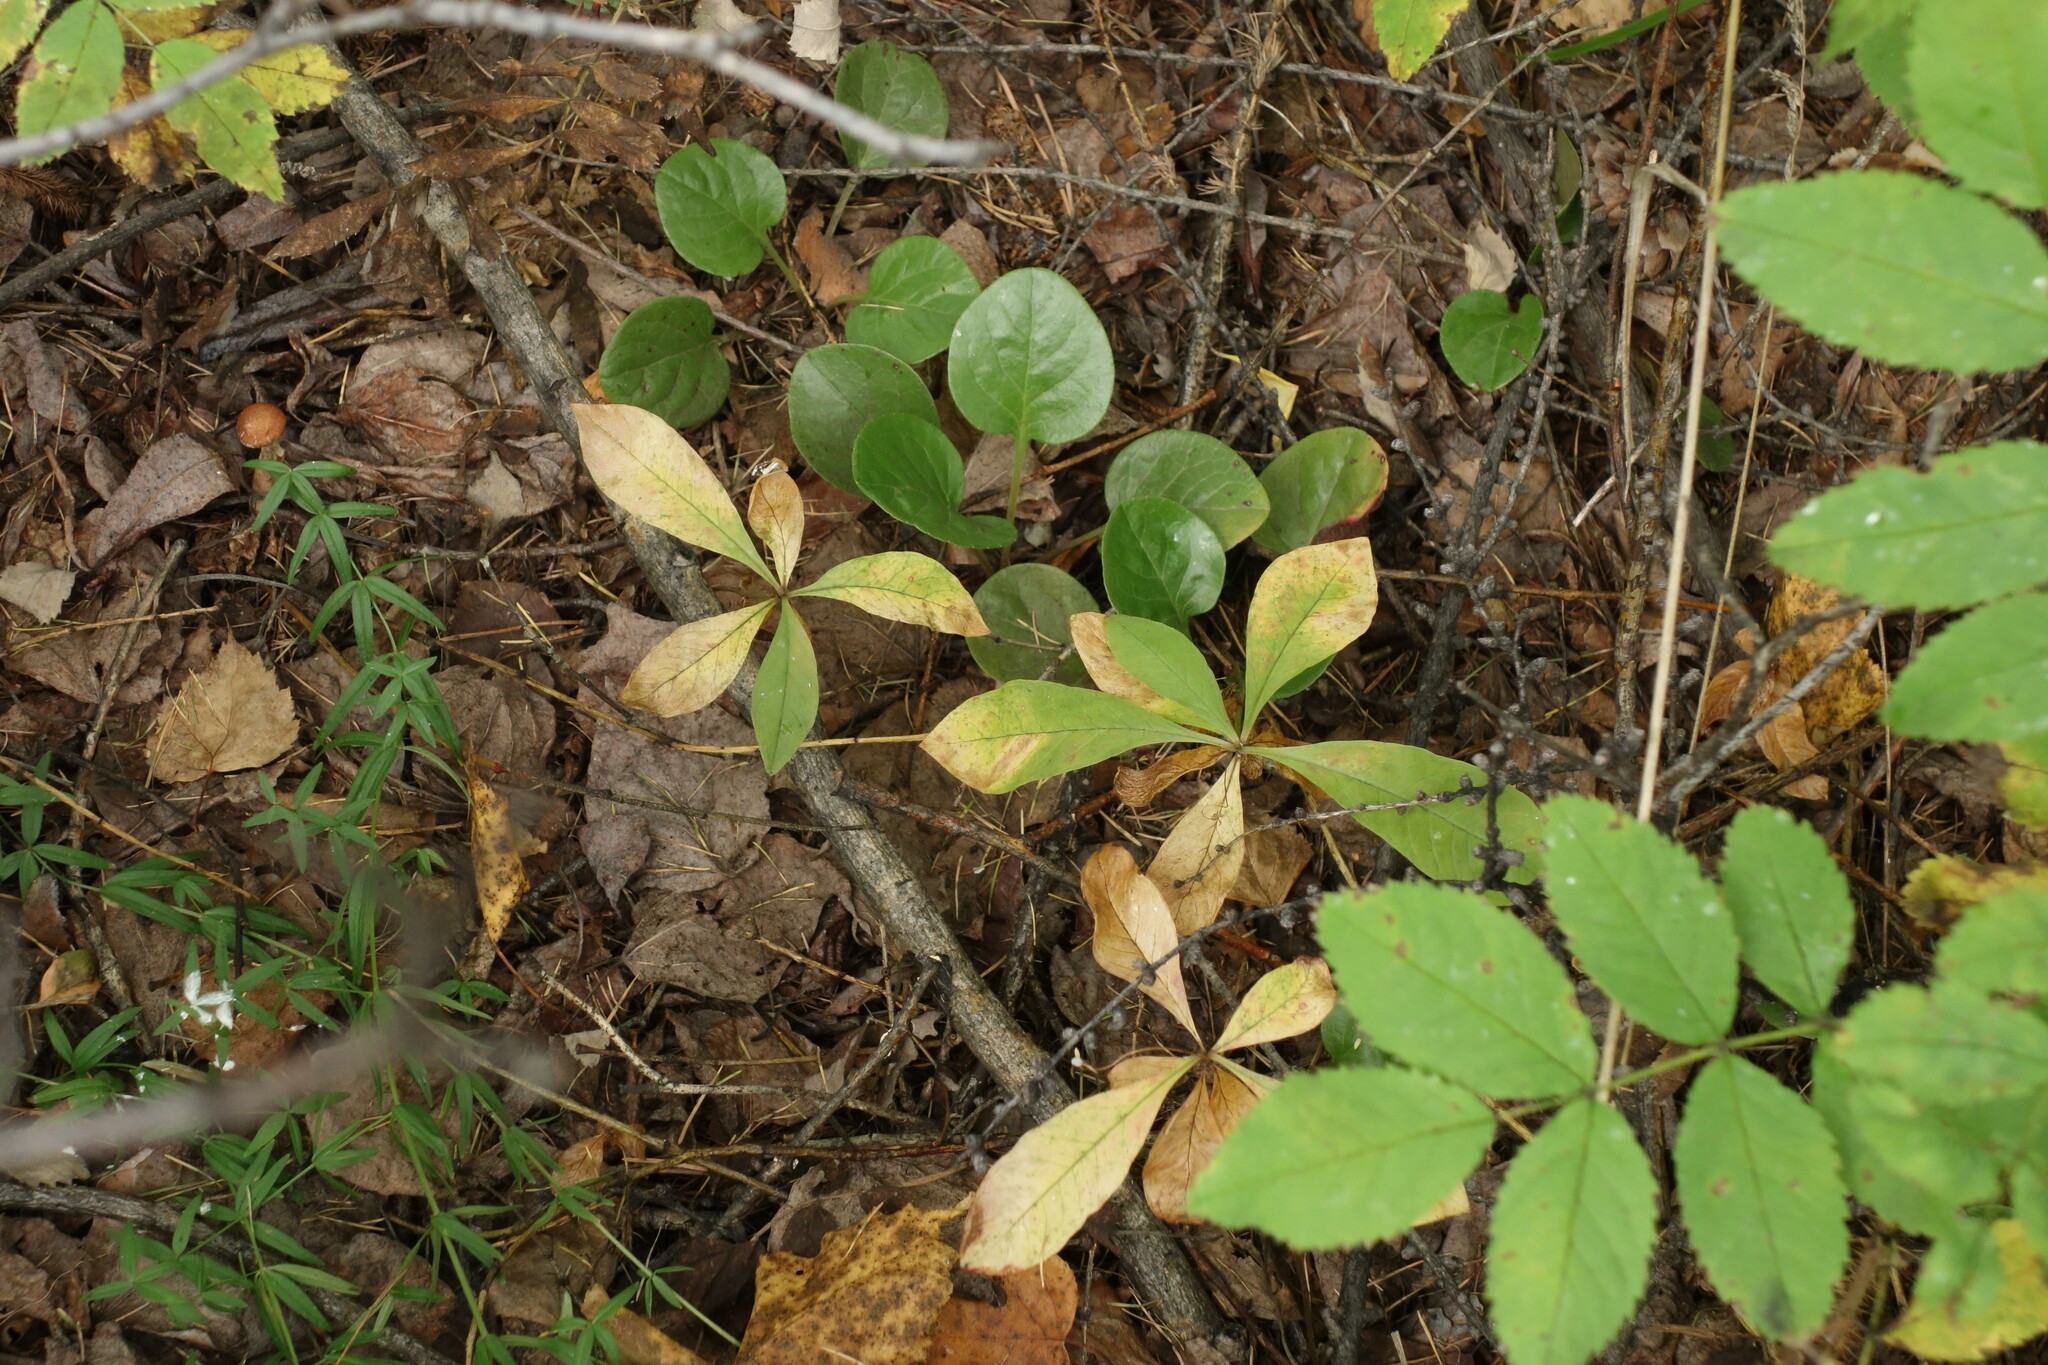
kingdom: Plantae
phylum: Tracheophyta
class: Magnoliopsida
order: Ericales
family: Primulaceae
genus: Lysimachia
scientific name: Lysimachia europaea
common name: Arctic starflower
